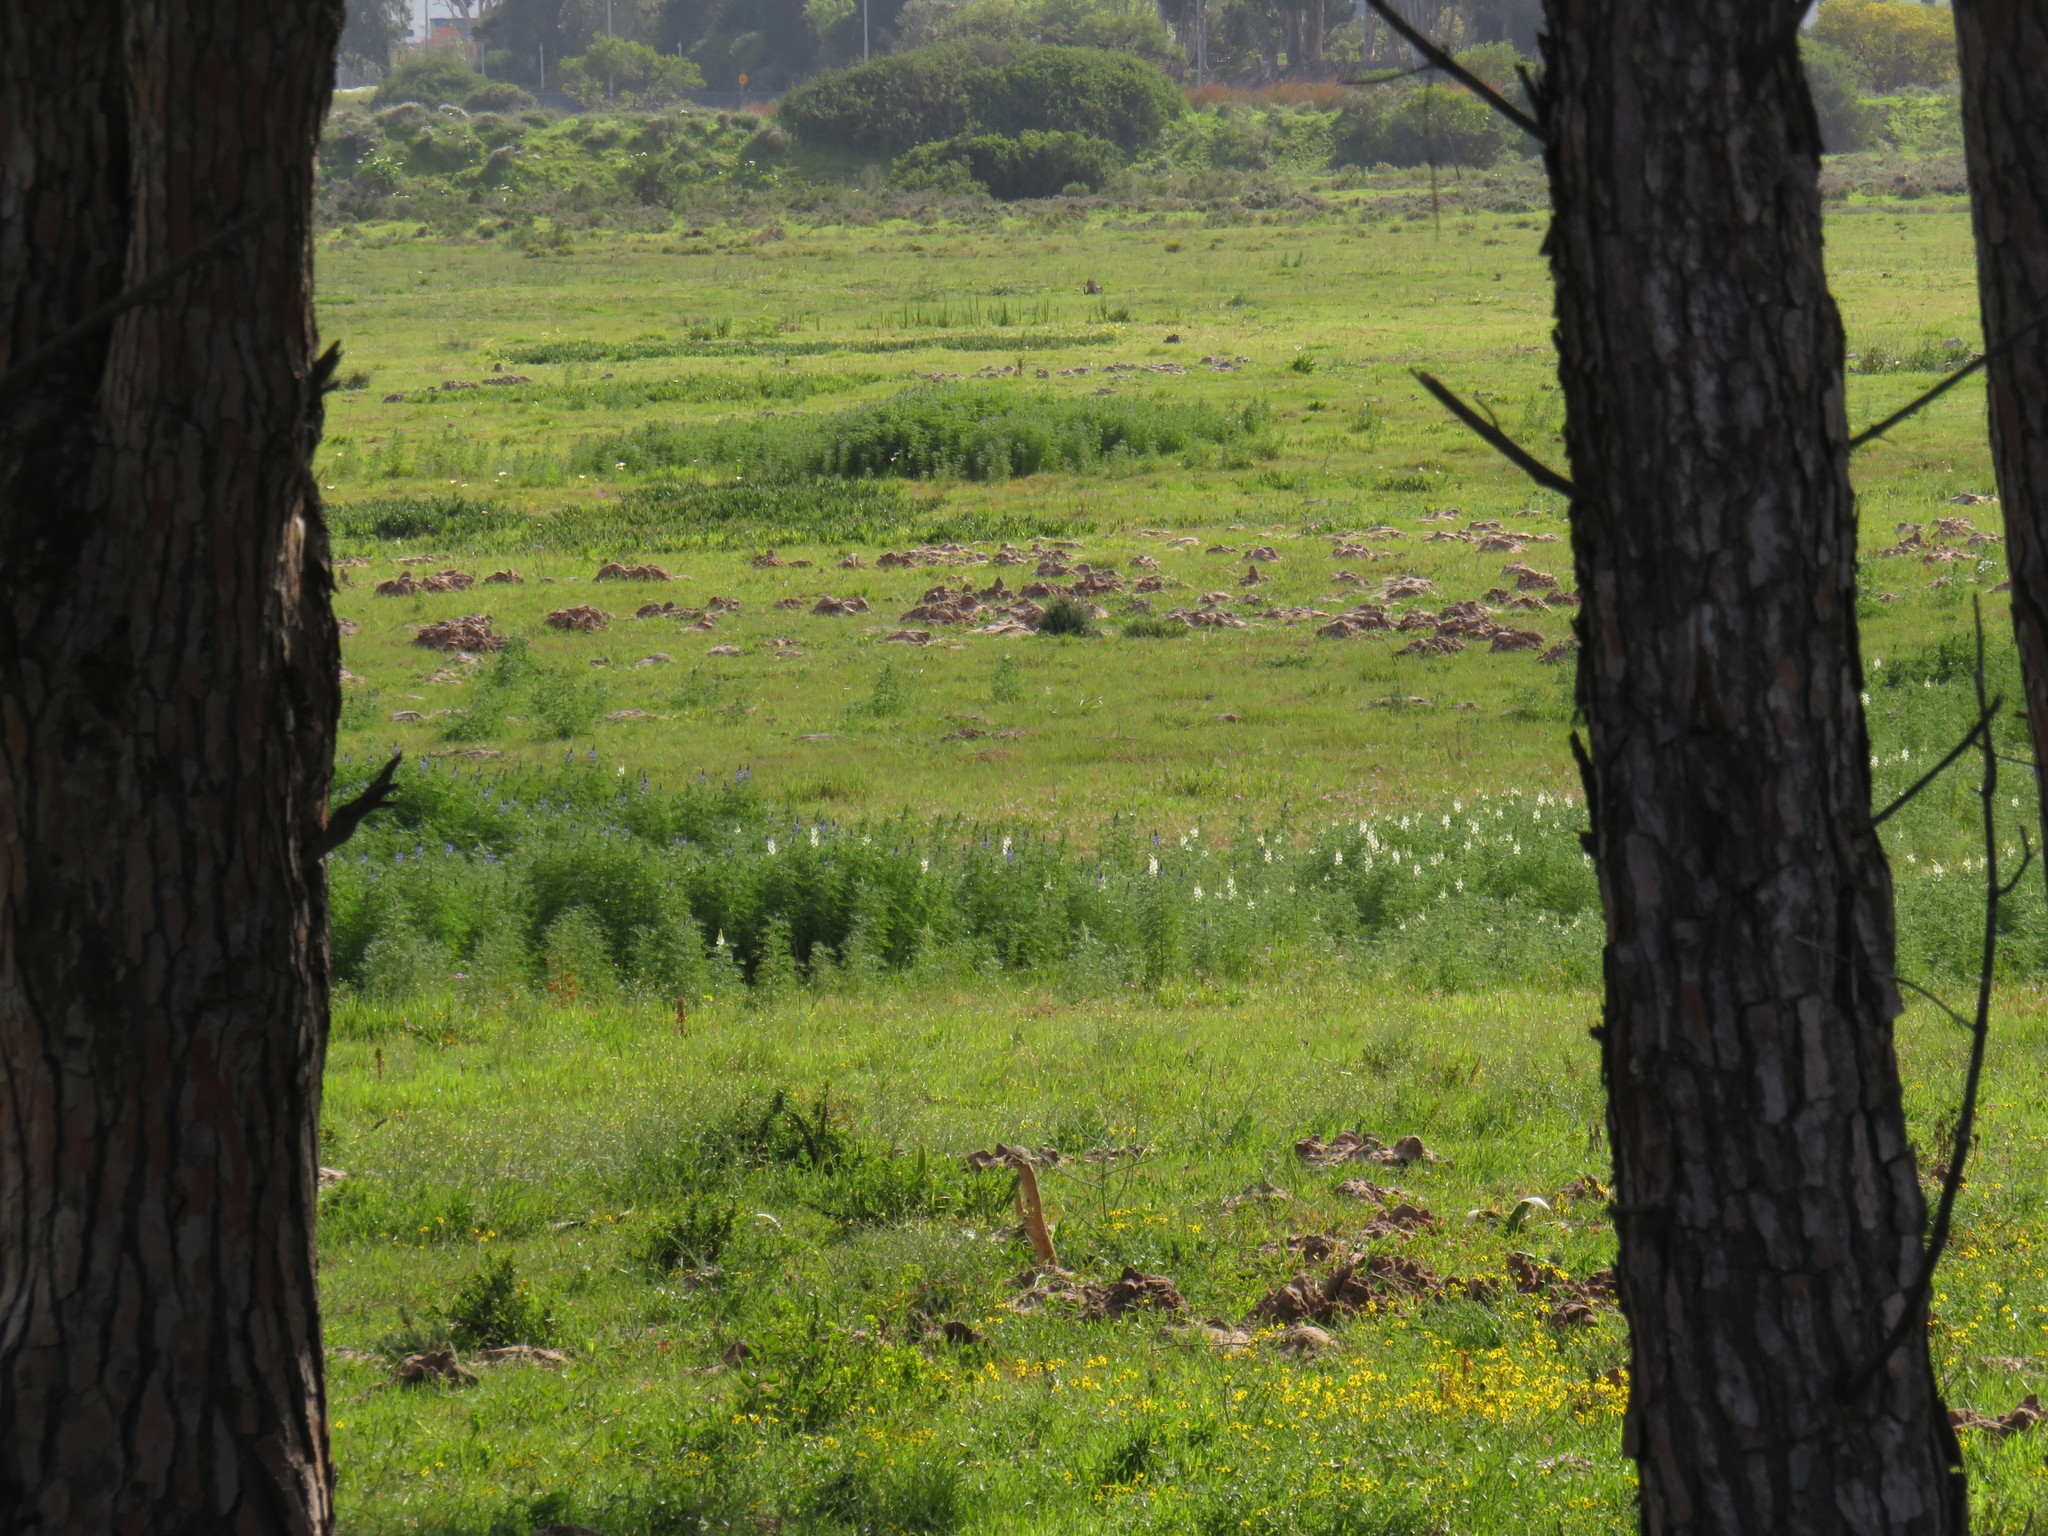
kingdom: Plantae
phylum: Tracheophyta
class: Magnoliopsida
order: Fabales
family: Fabaceae
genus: Lupinus
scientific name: Lupinus angustifolius
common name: Narrow-leaved lupin
